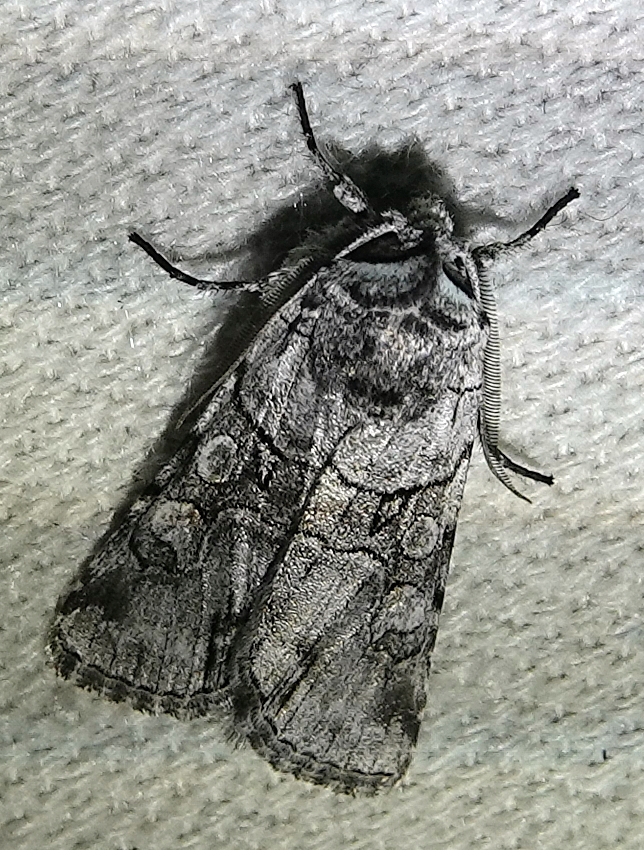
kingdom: Animalia
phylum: Arthropoda
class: Insecta
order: Lepidoptera
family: Noctuidae
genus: Sympistis
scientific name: Sympistis chionanthi
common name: Fringe-tree sallow
